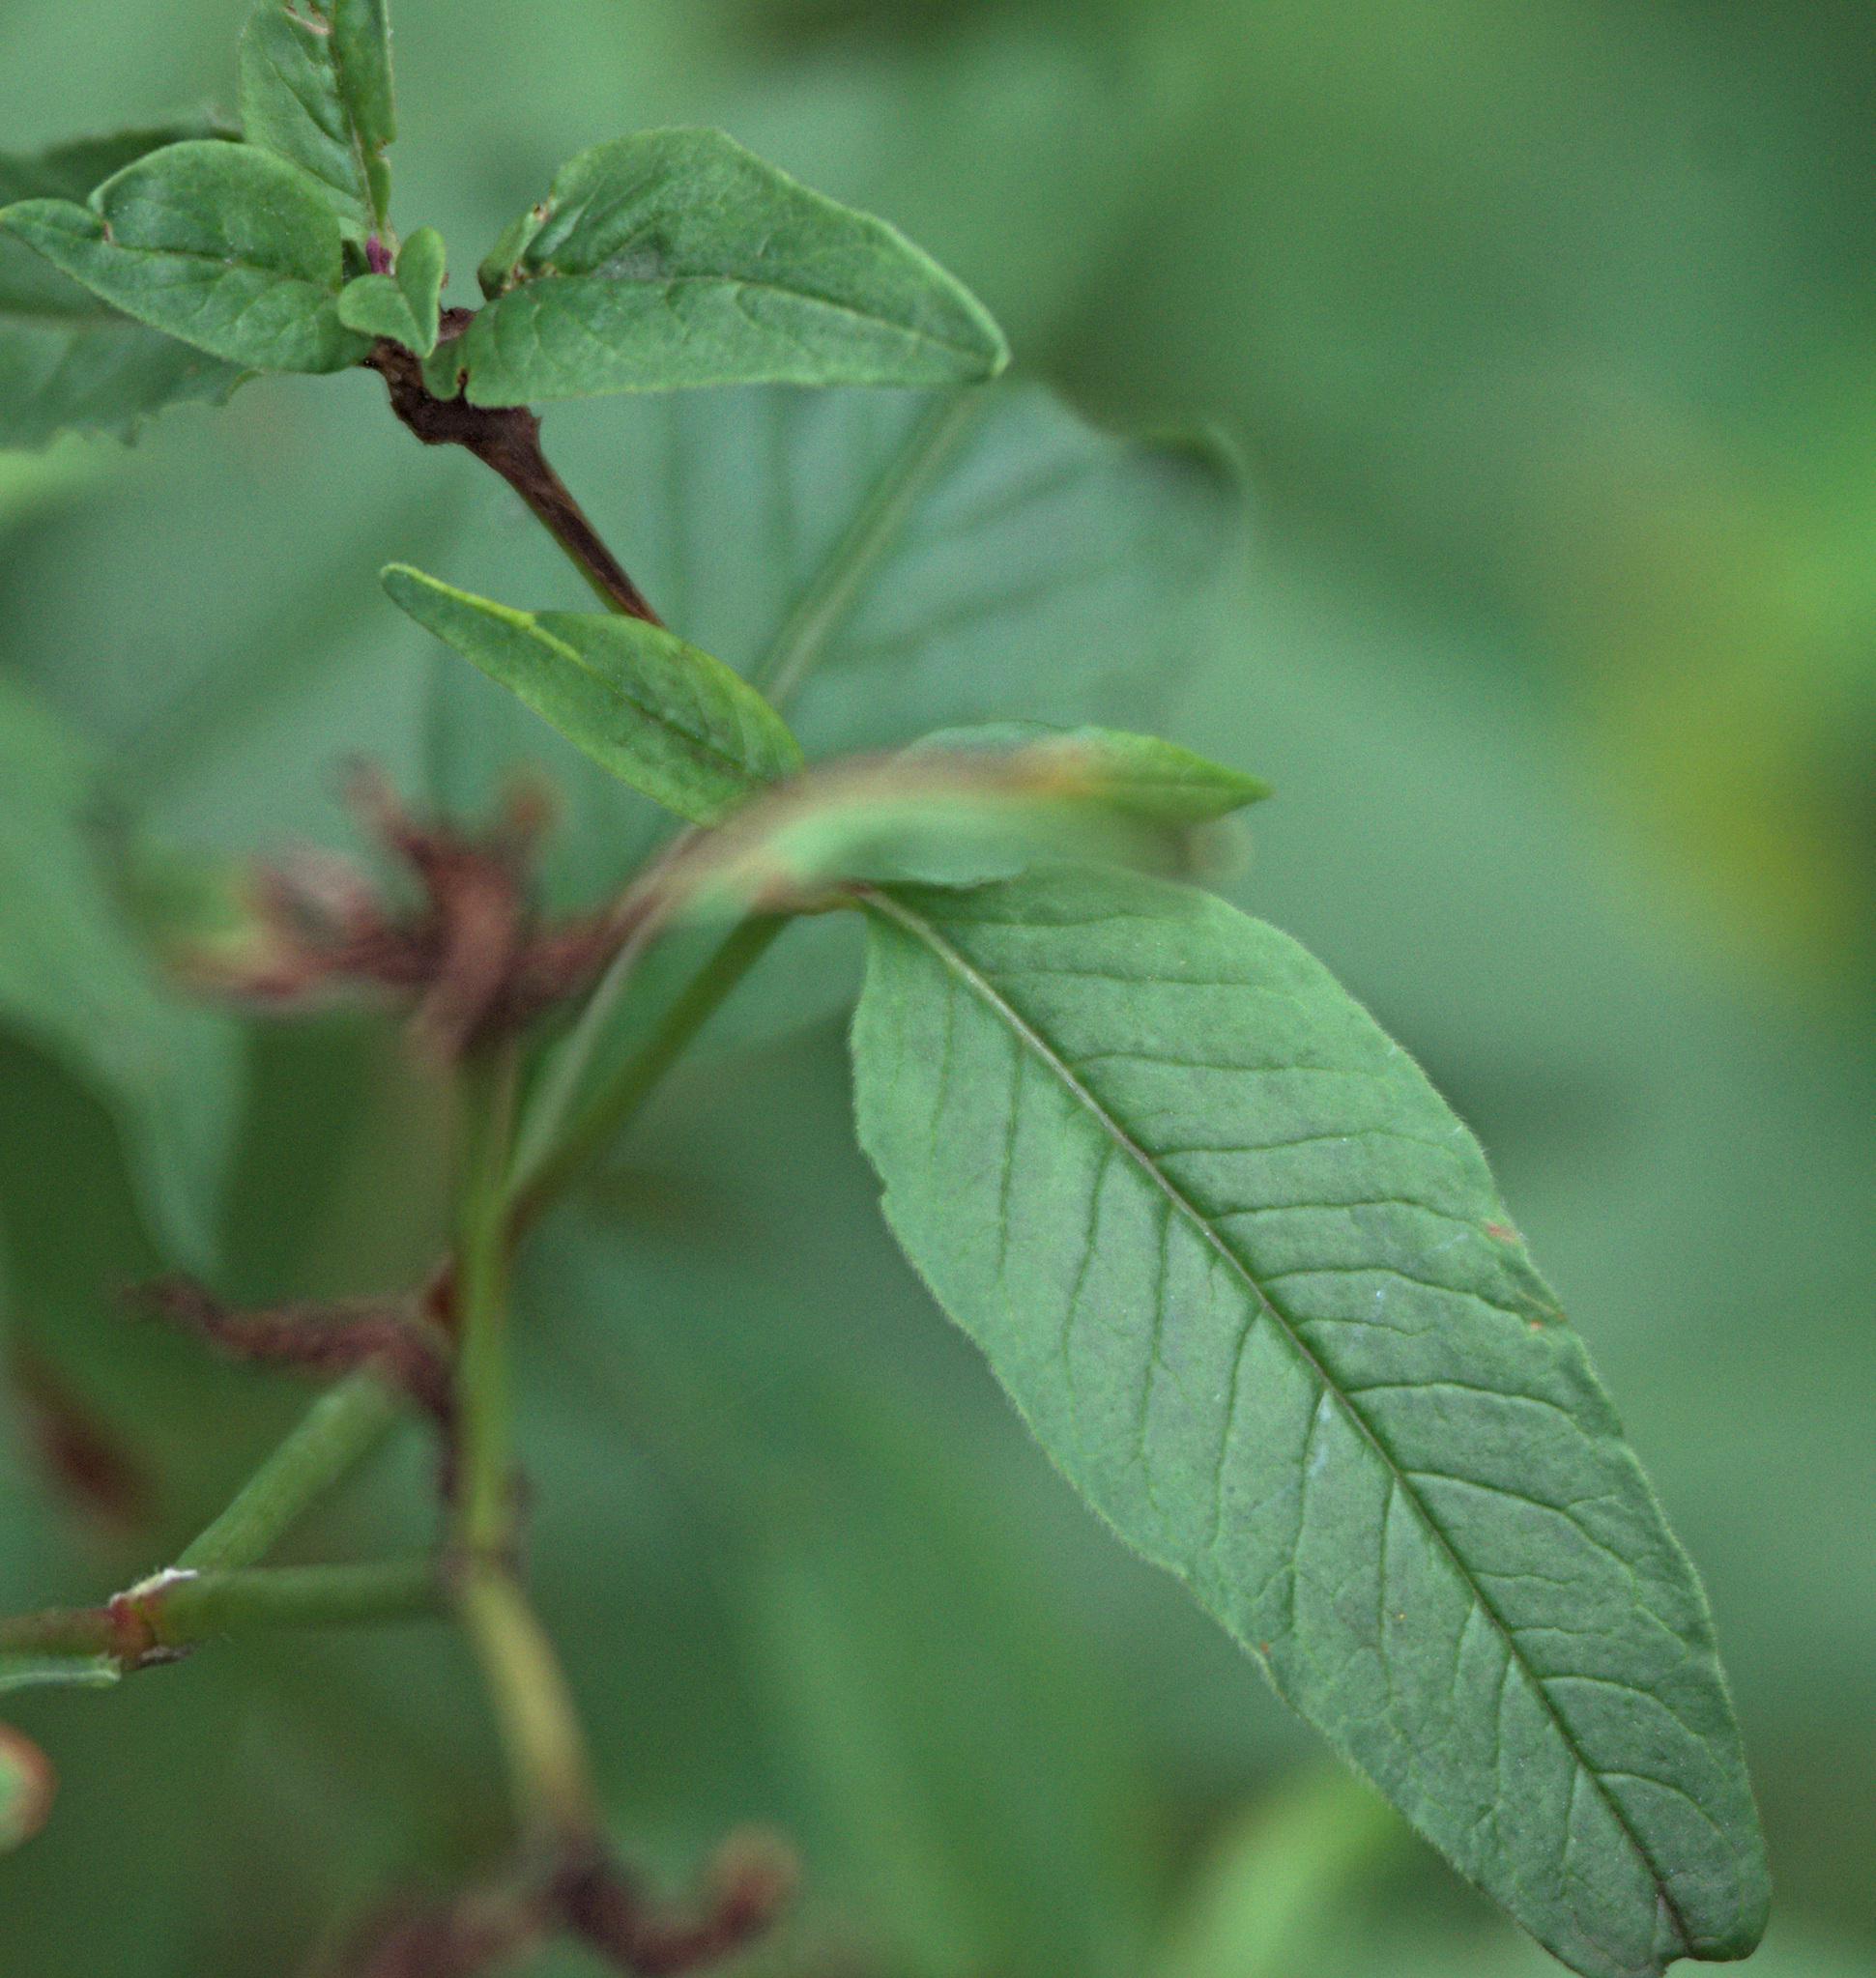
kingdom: Plantae
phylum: Tracheophyta
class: Magnoliopsida
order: Caryophyllales
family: Polygonaceae
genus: Koenigia
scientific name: Koenigia alpina
